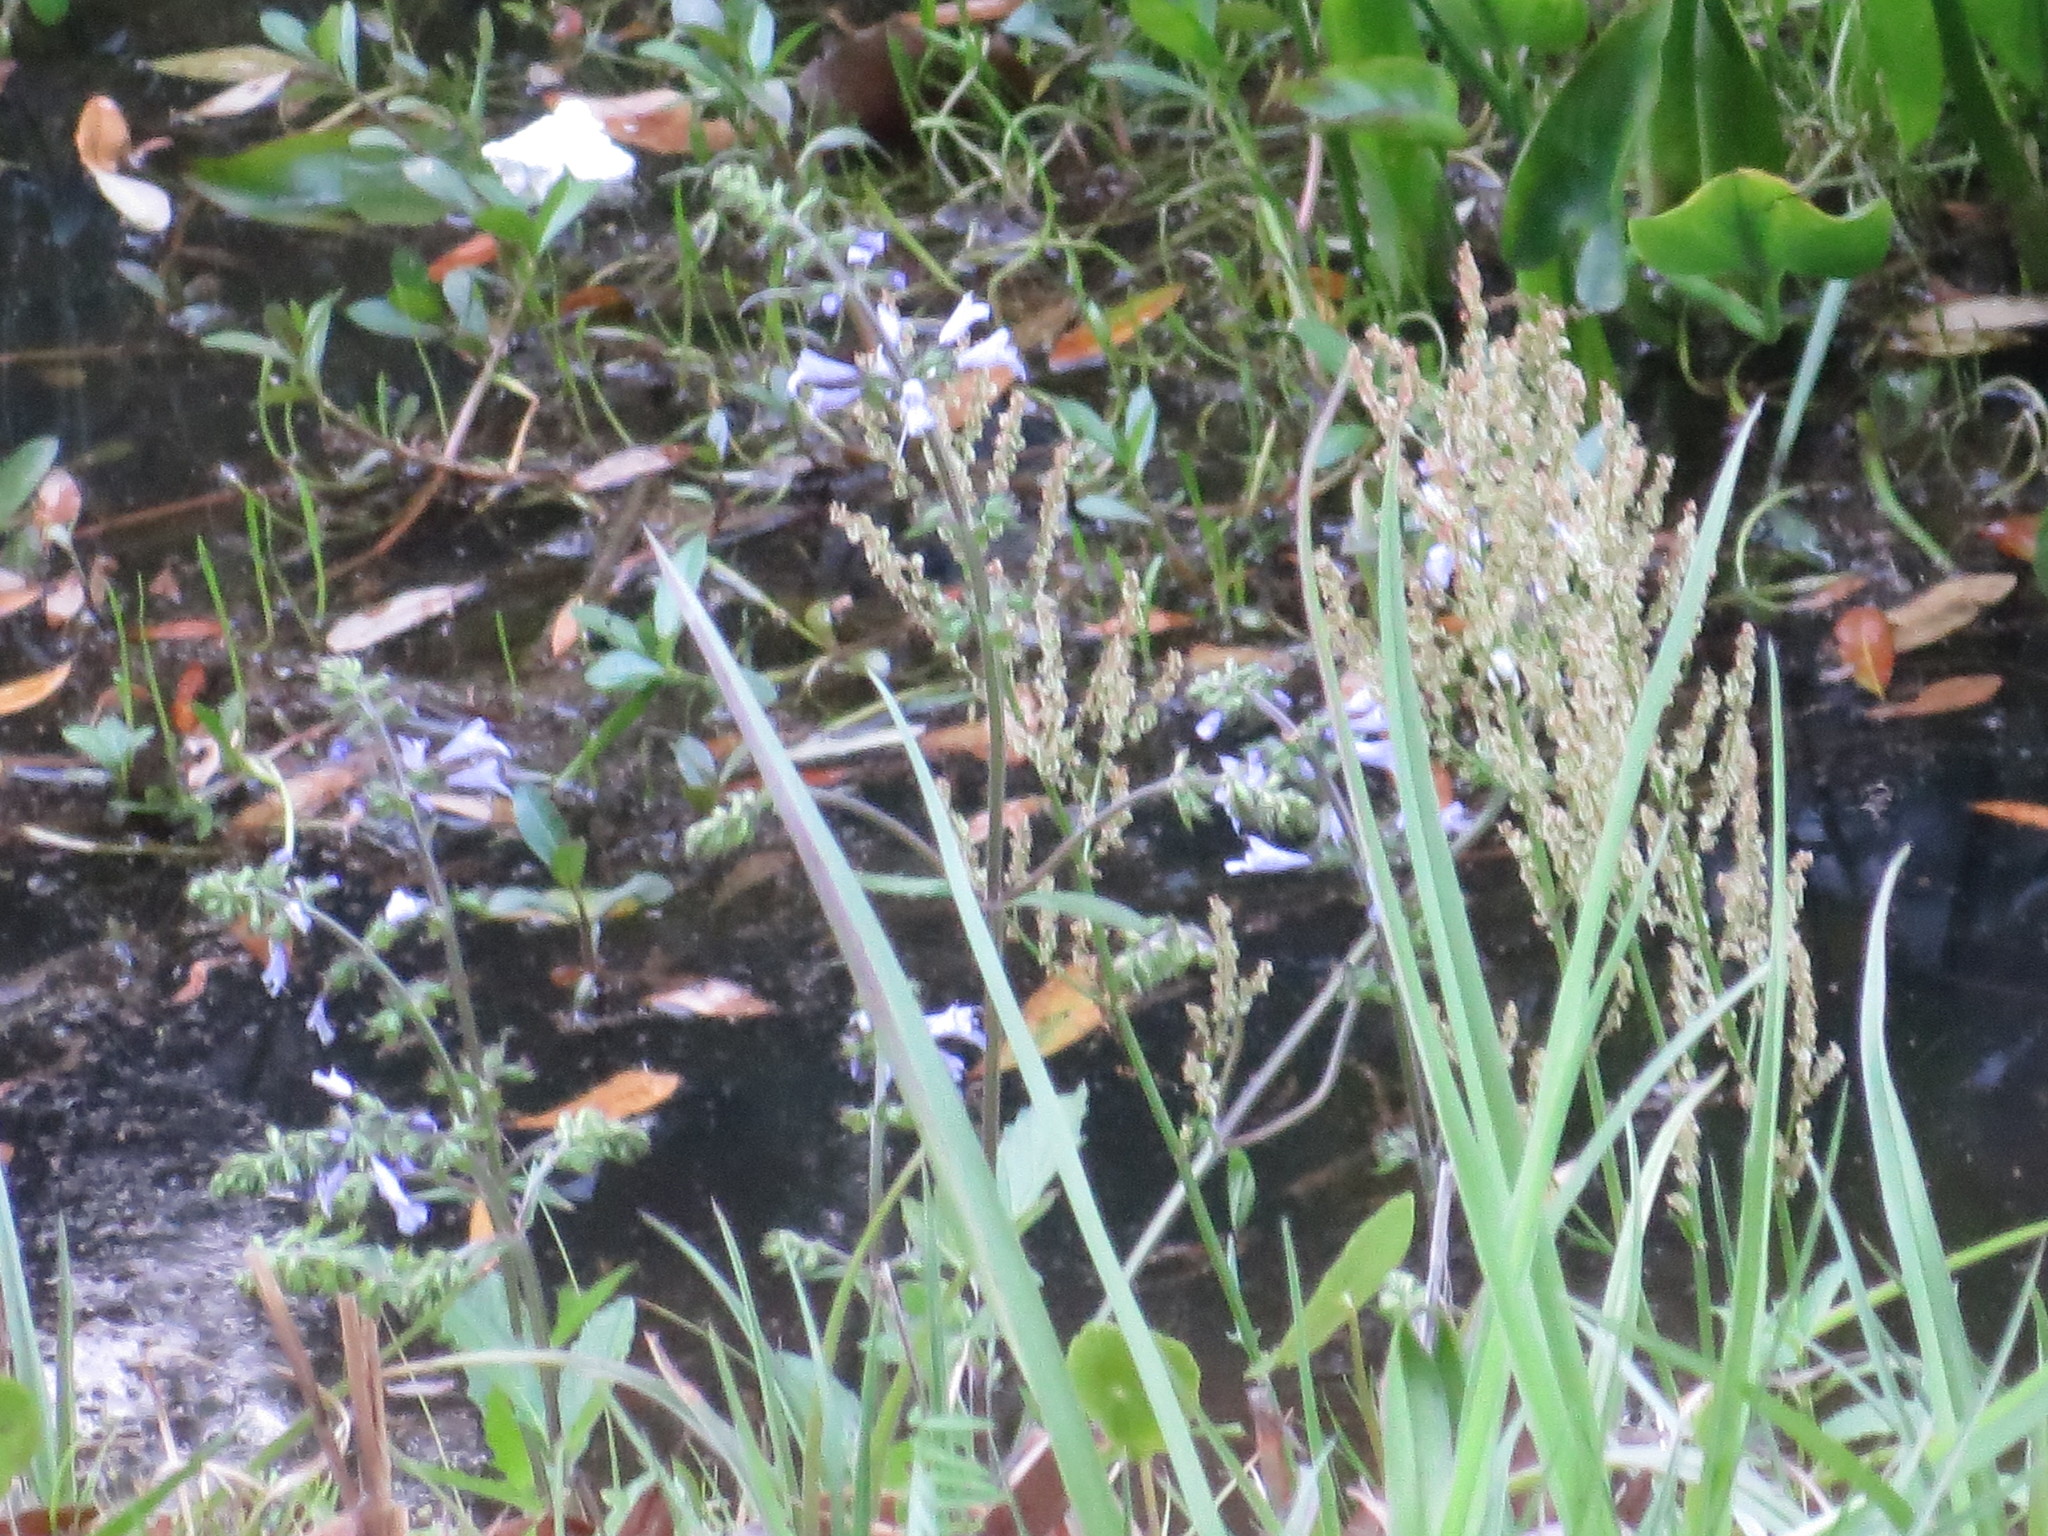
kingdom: Plantae
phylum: Tracheophyta
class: Magnoliopsida
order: Lamiales
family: Lamiaceae
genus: Salvia
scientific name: Salvia lyrata
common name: Cancerweed
